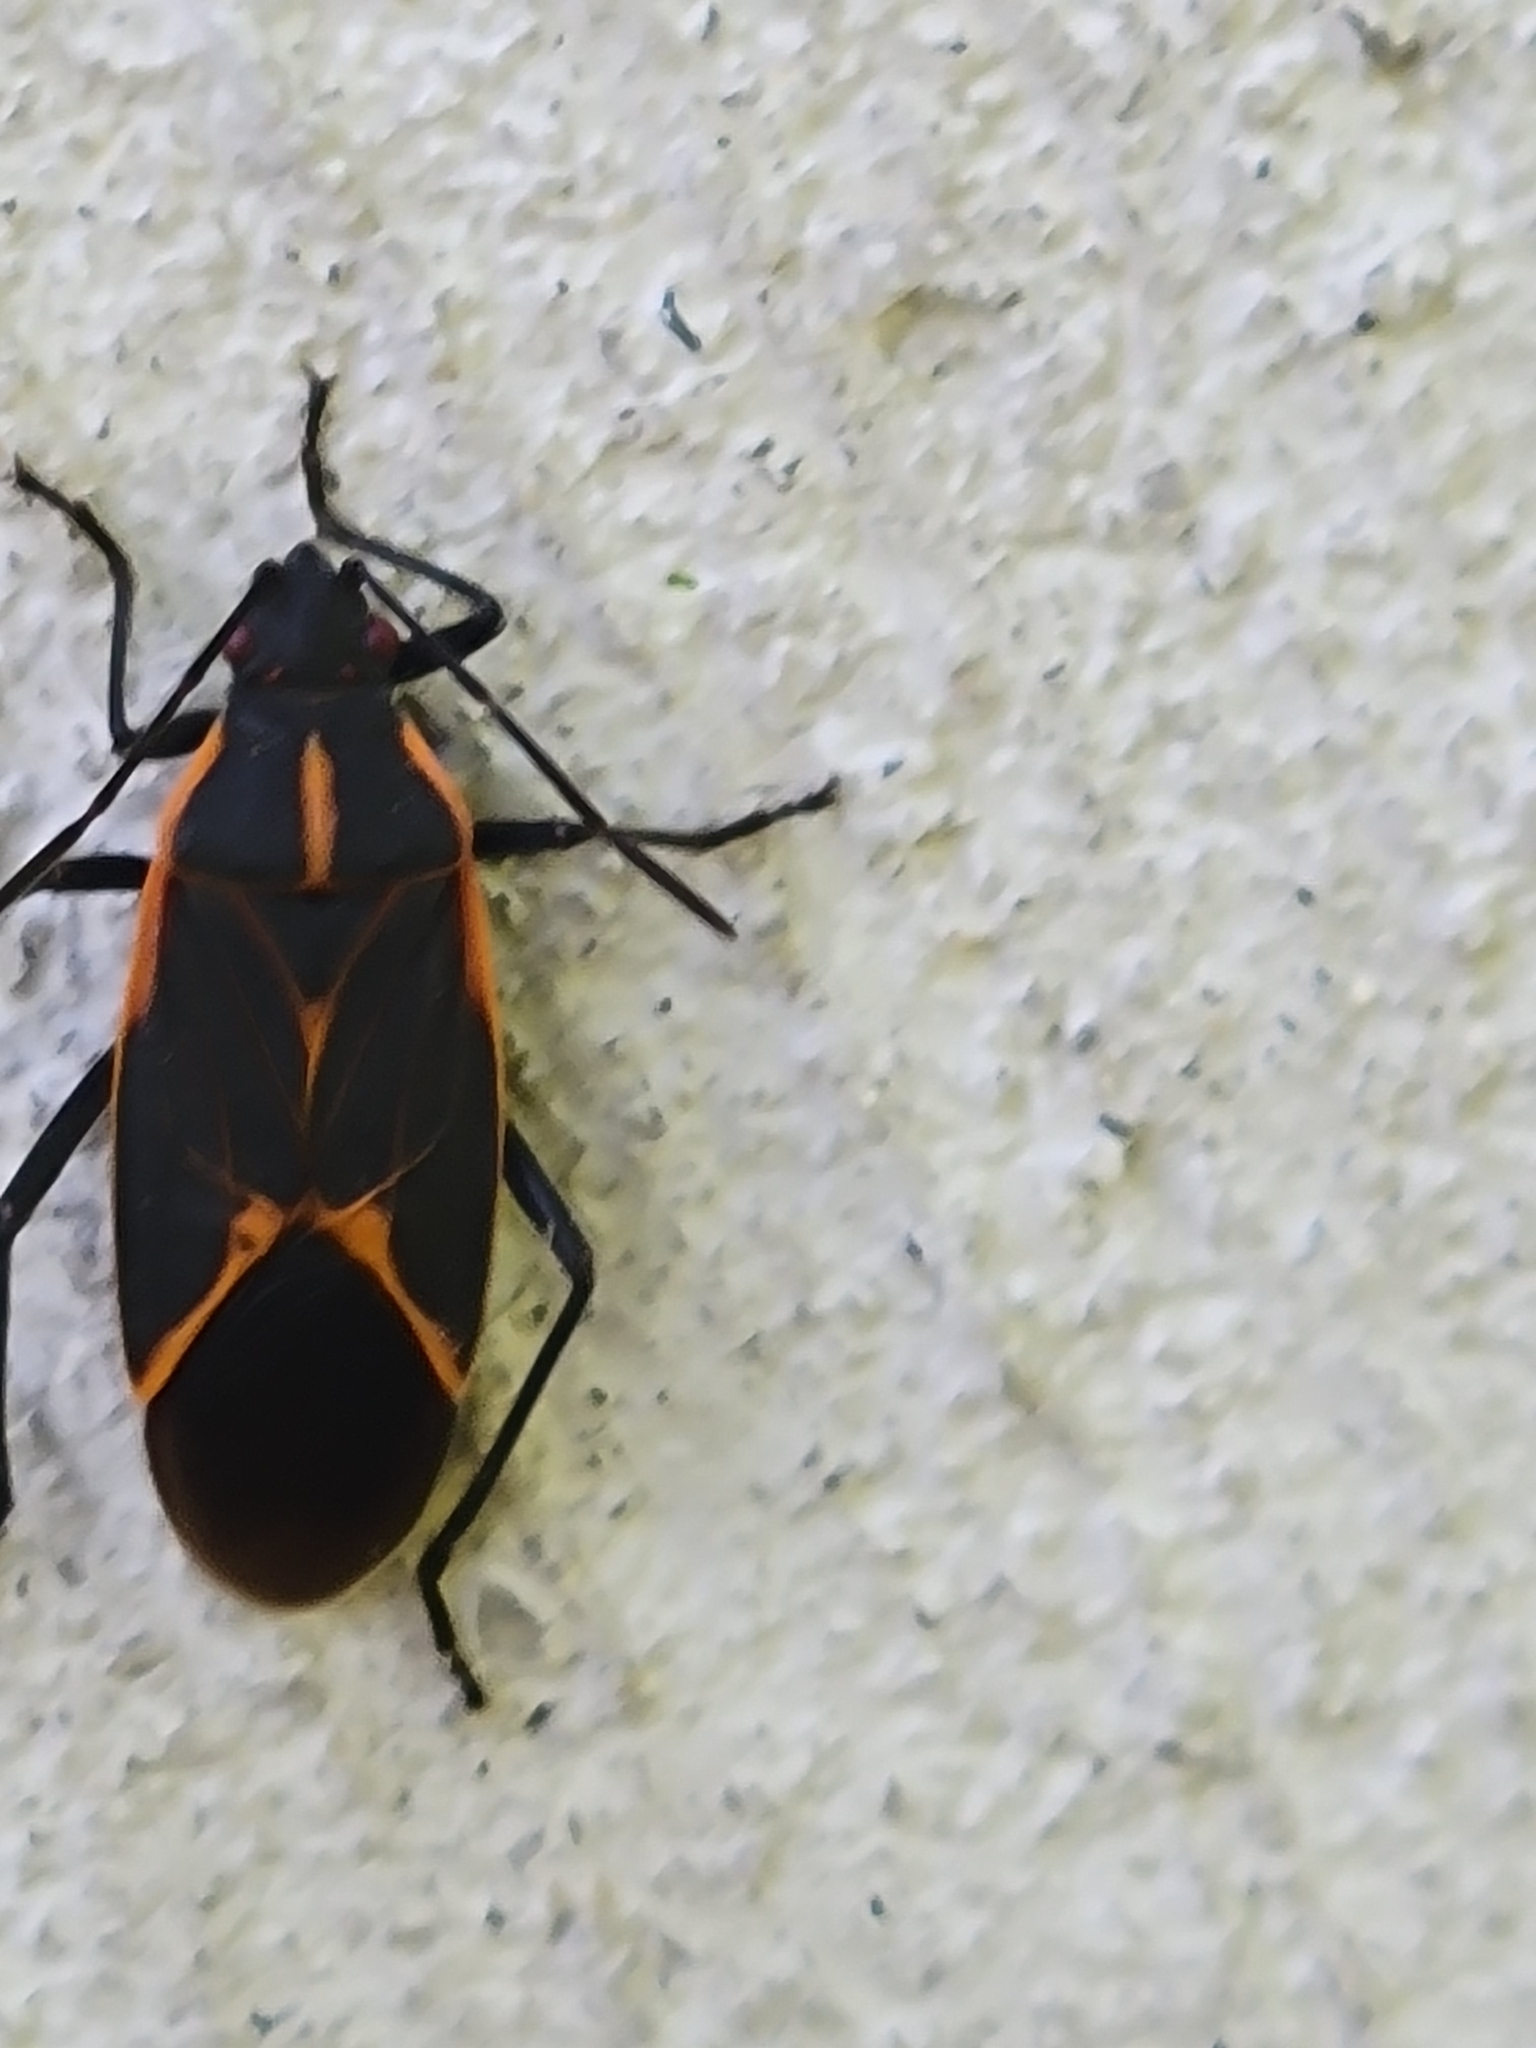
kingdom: Animalia
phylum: Arthropoda
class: Insecta
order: Hemiptera
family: Rhopalidae
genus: Boisea
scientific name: Boisea trivittata
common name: Boxelder bug
